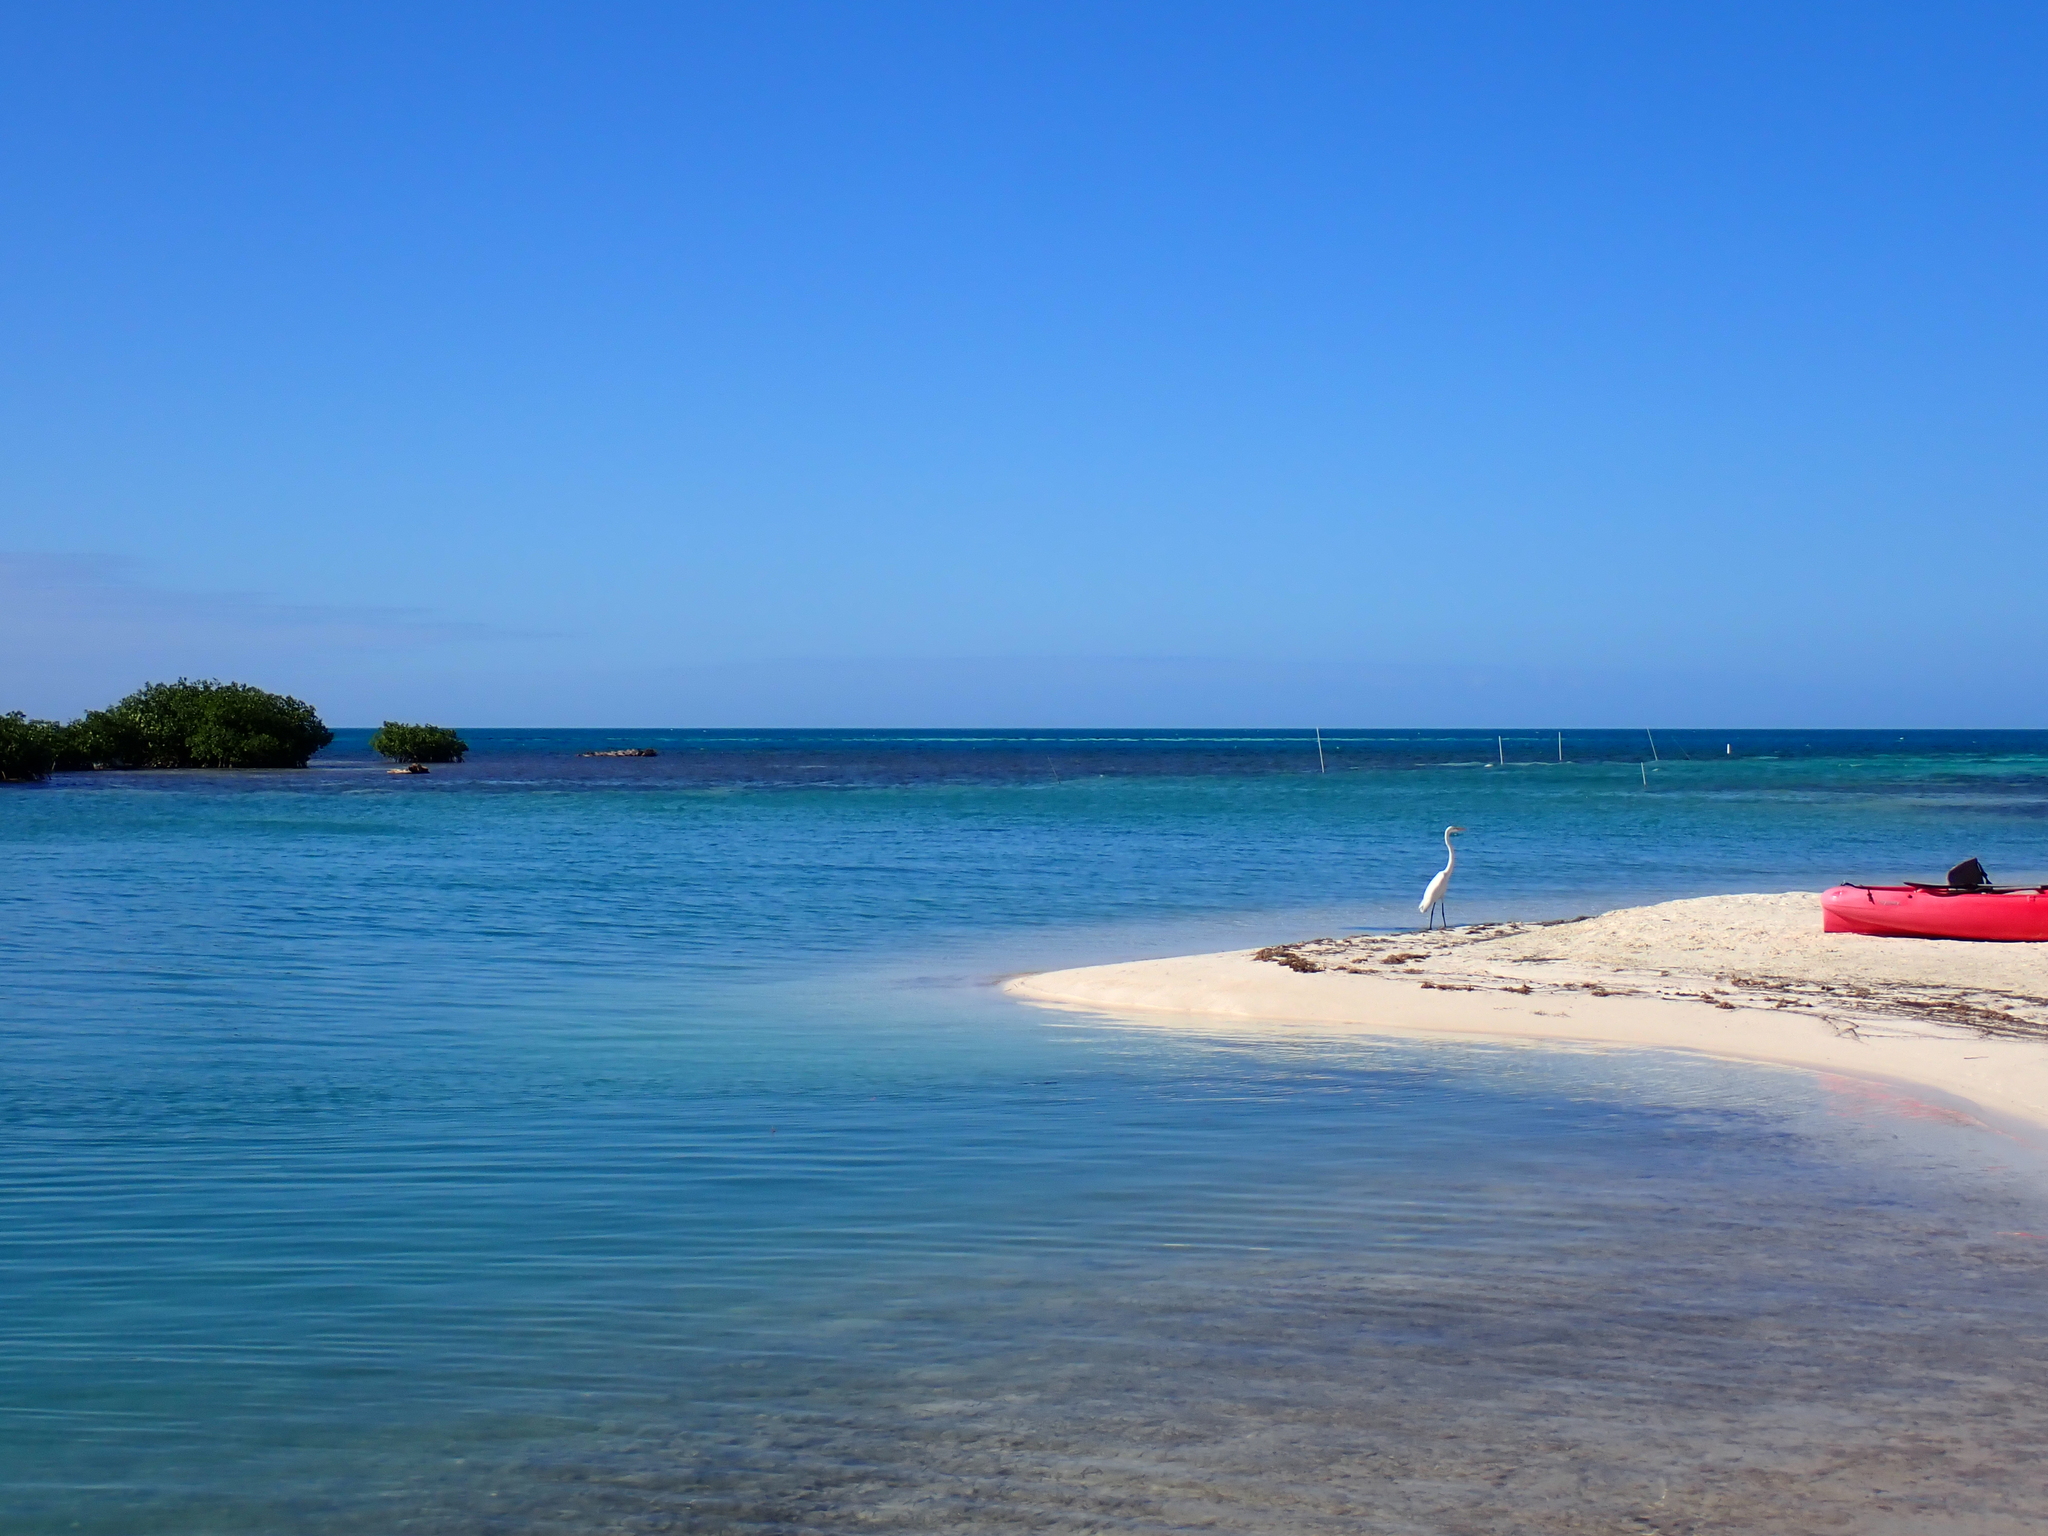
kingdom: Animalia
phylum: Chordata
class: Elasmobranchii
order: Myliobatiformes
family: Urotrygonidae
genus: Urobatis
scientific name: Urobatis jamaicensis
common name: Yellow stingray
